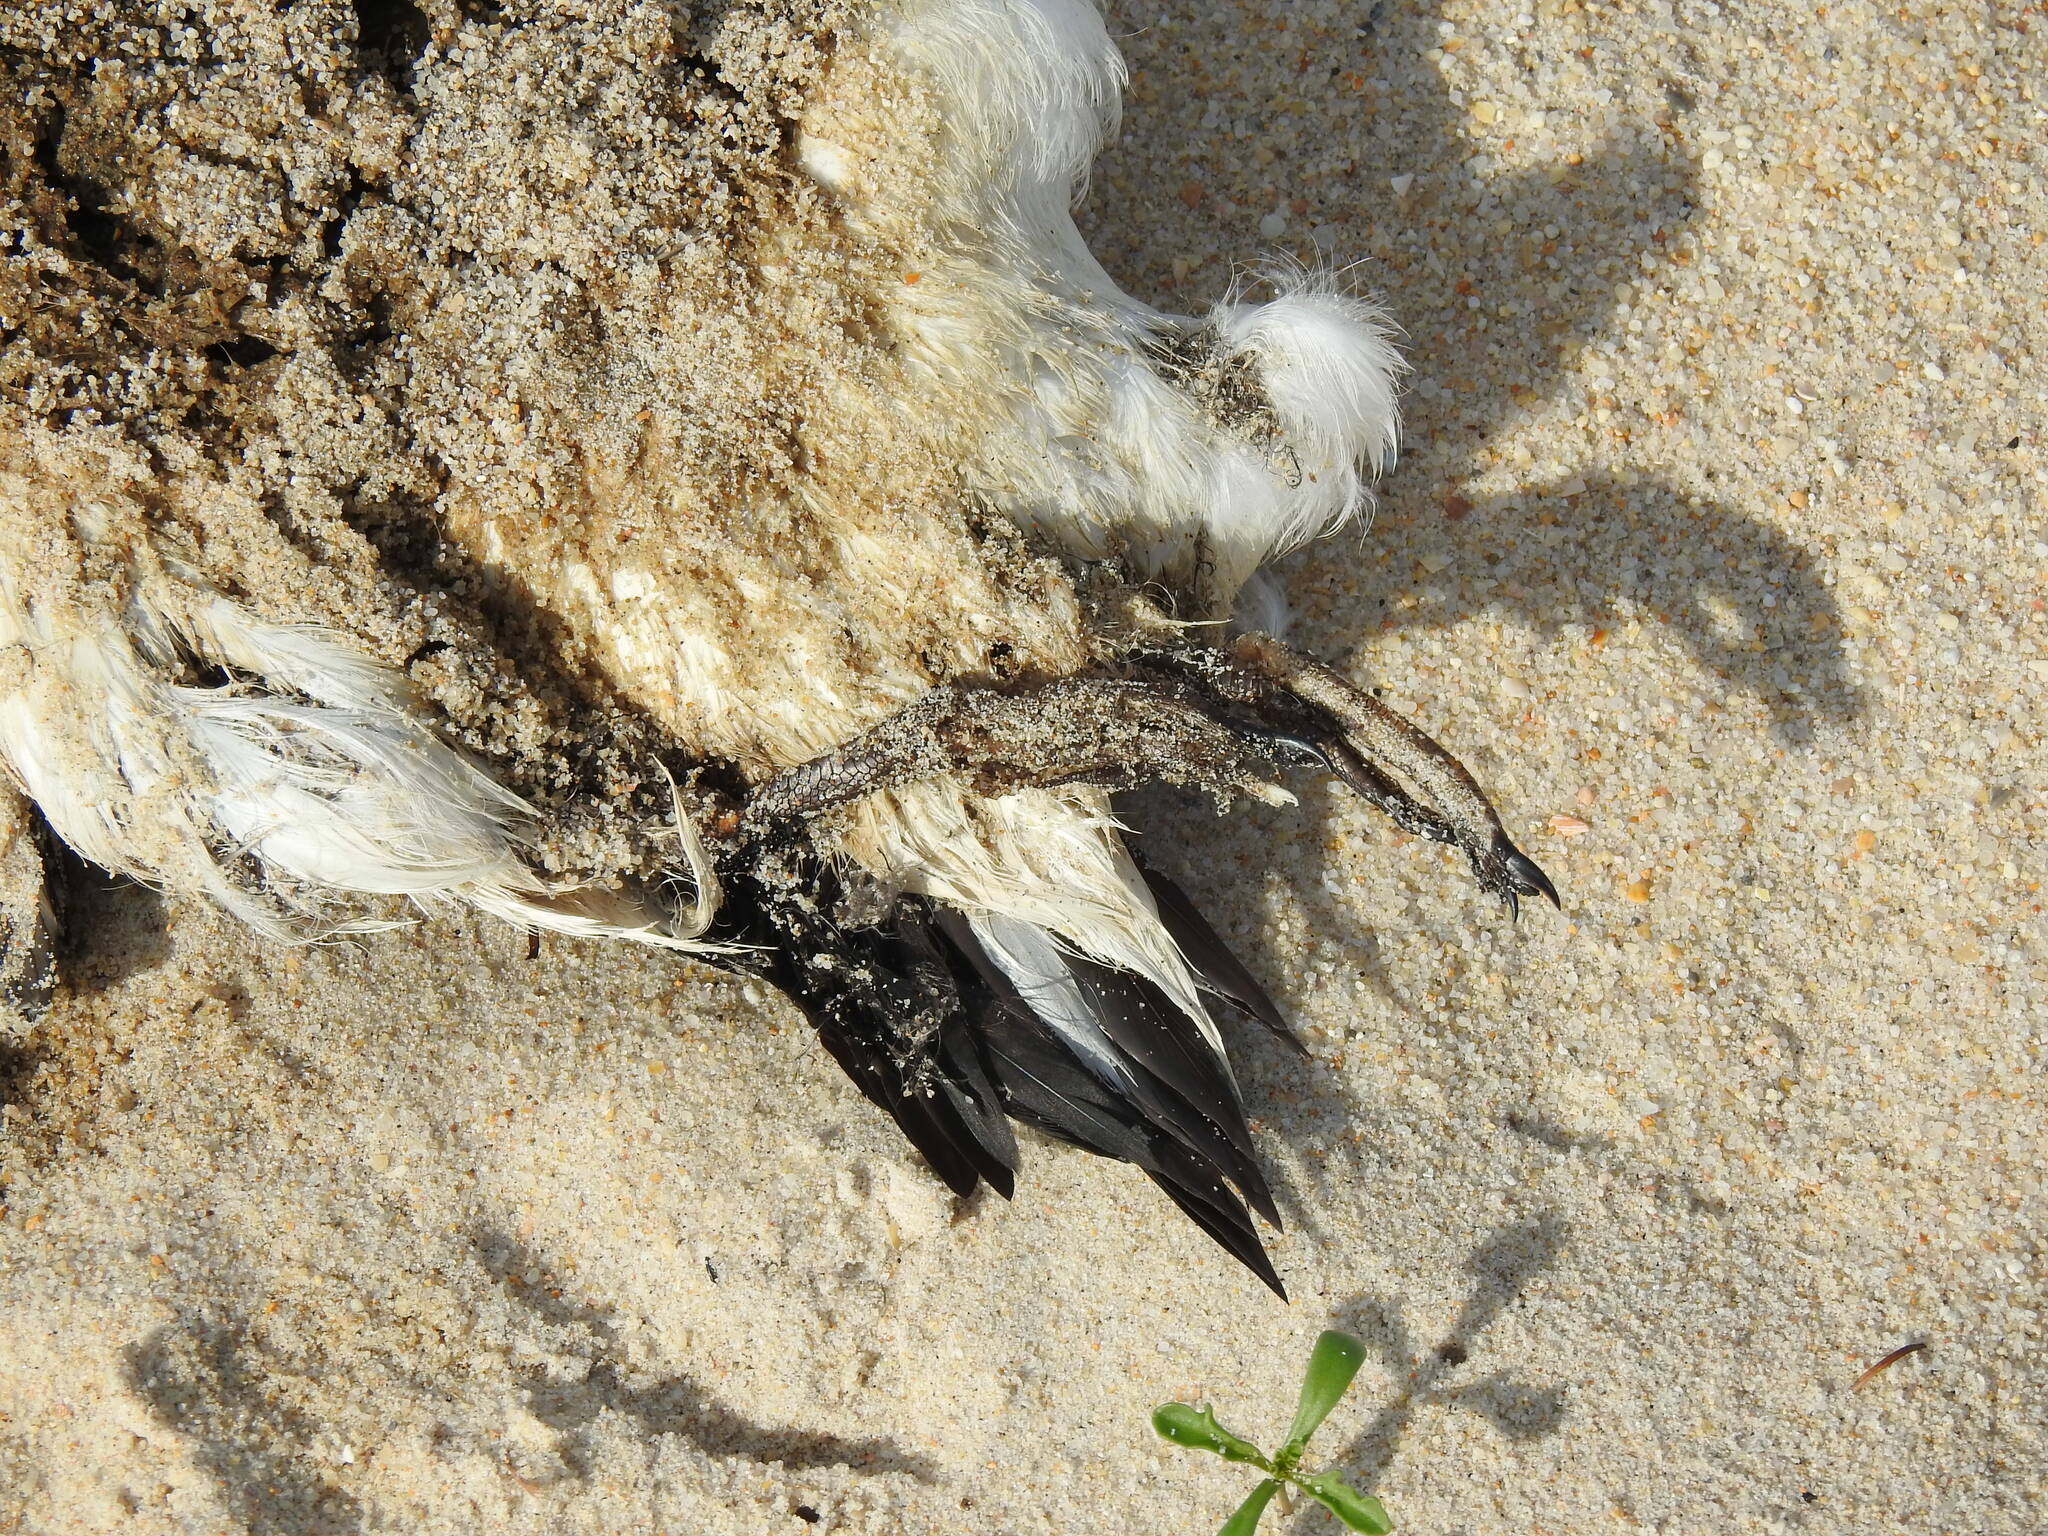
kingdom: Animalia
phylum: Chordata
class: Aves
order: Charadriiformes
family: Alcidae
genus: Alca
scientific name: Alca torda
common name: Razorbill
